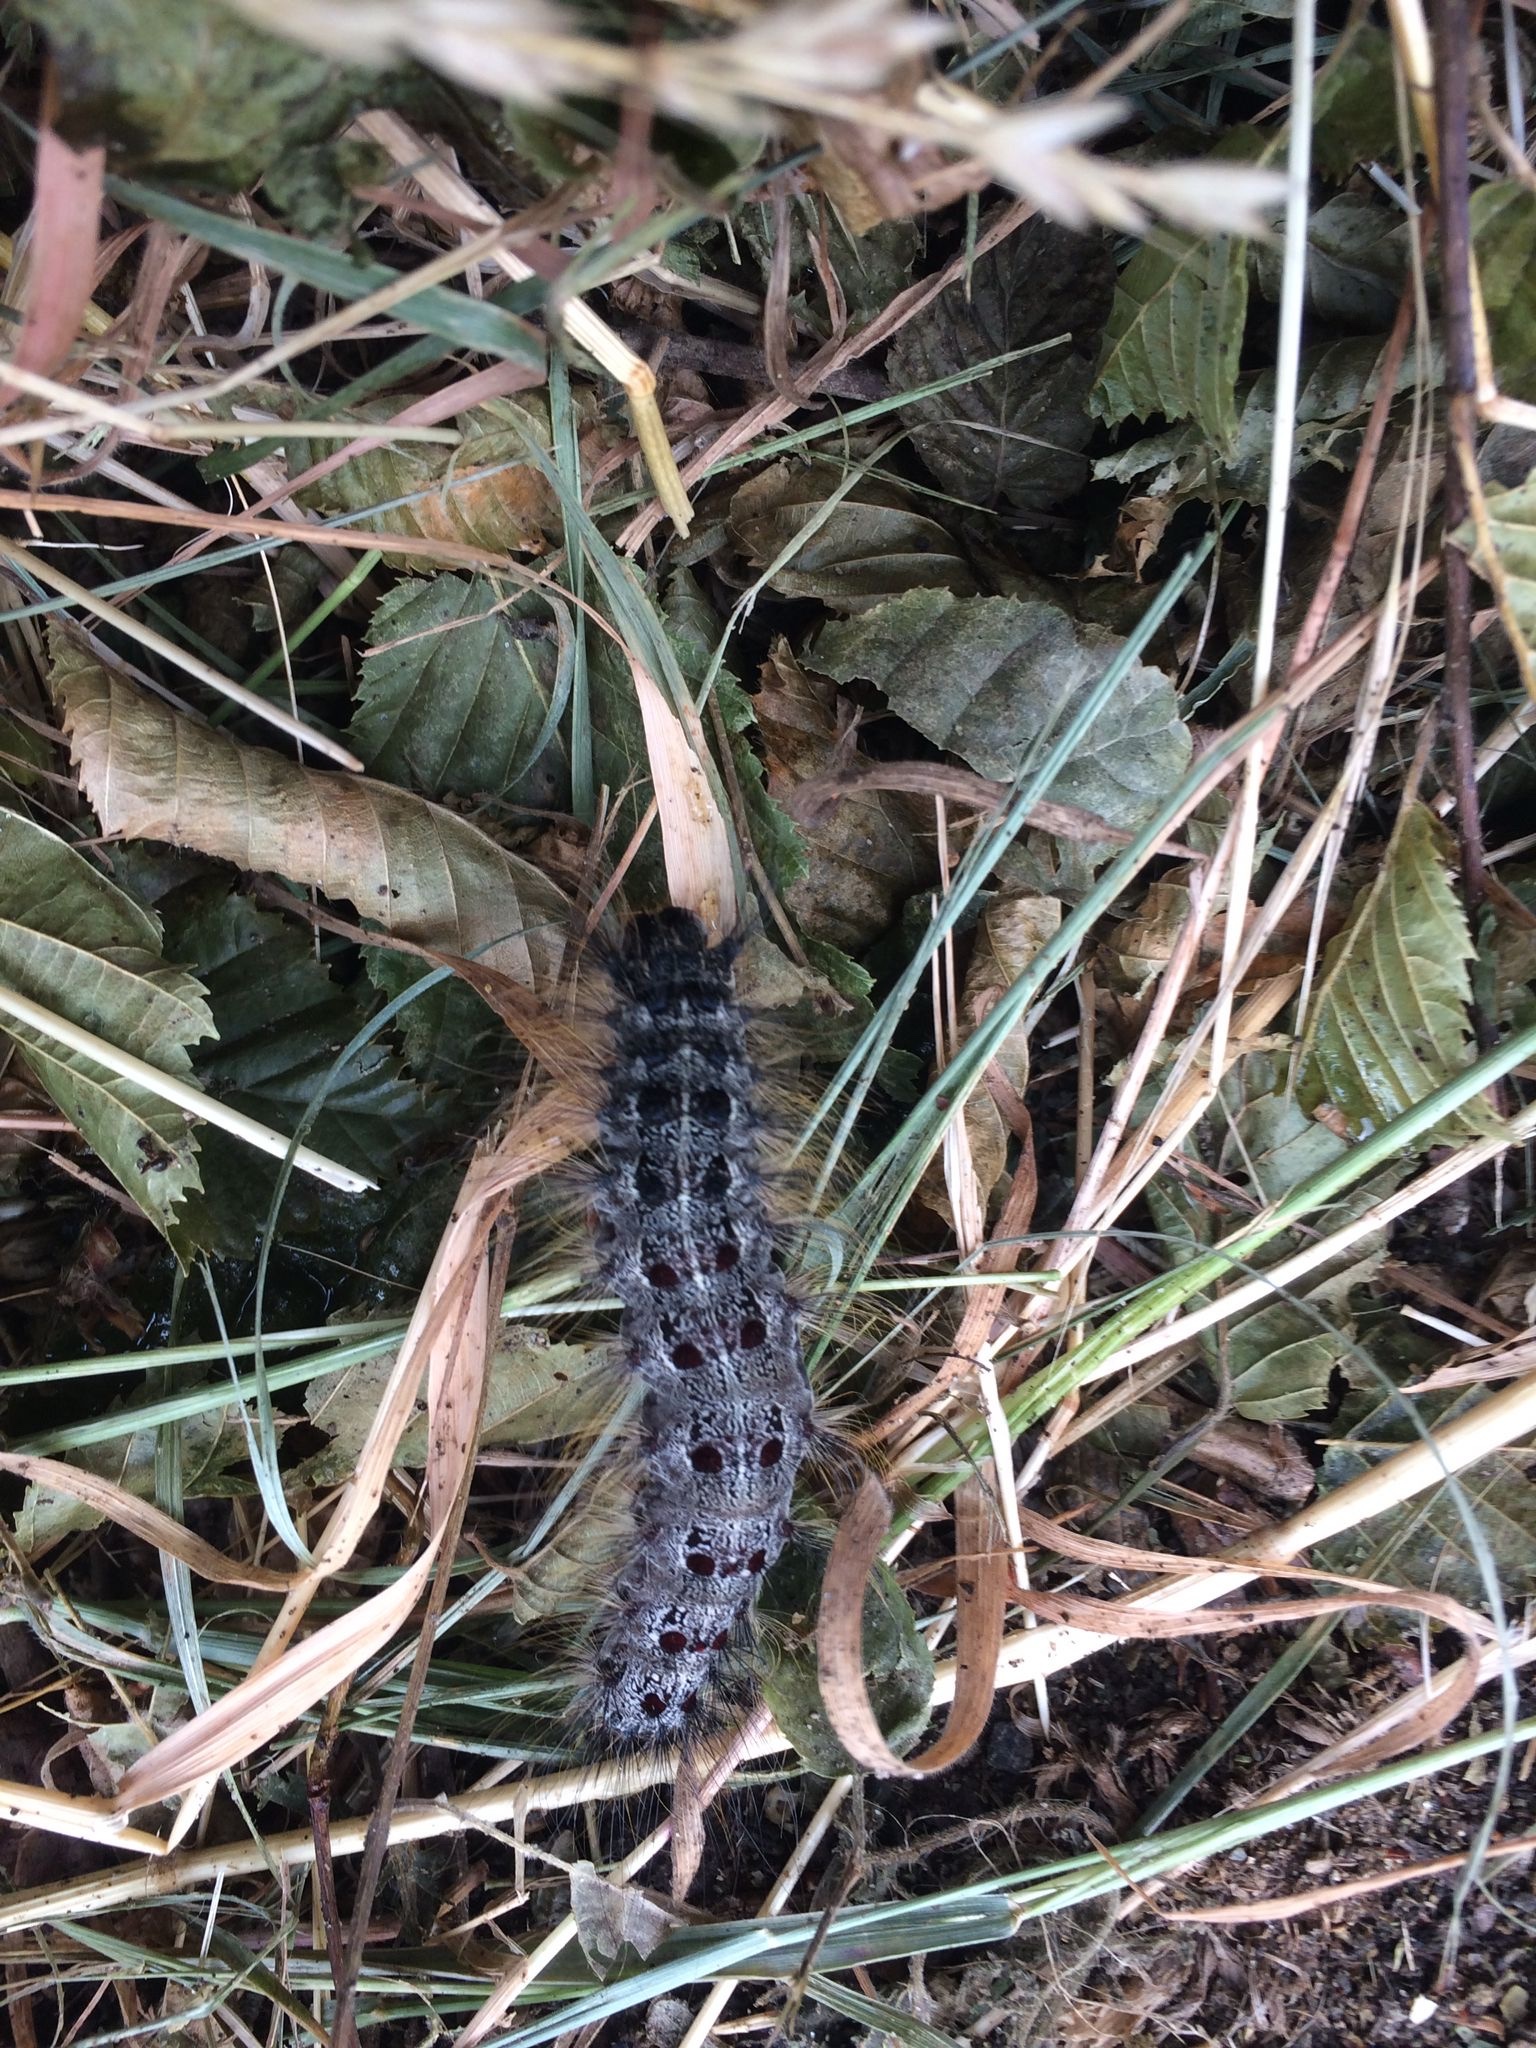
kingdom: Animalia
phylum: Arthropoda
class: Insecta
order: Lepidoptera
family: Erebidae
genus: Lymantria
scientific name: Lymantria dispar
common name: Gypsy moth
